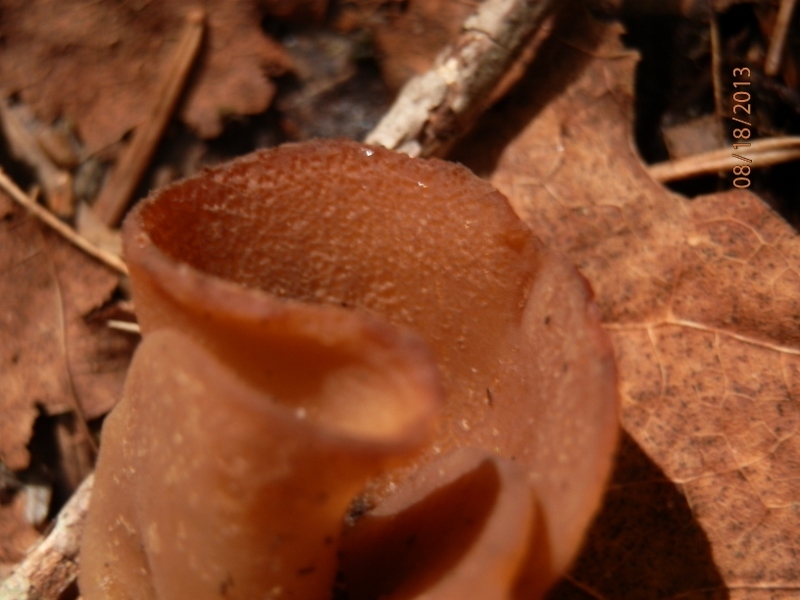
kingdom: Fungi
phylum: Ascomycota
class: Pezizomycetes
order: Pezizales
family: Pyronemataceae
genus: Sowerbyella
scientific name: Sowerbyella unicisa
